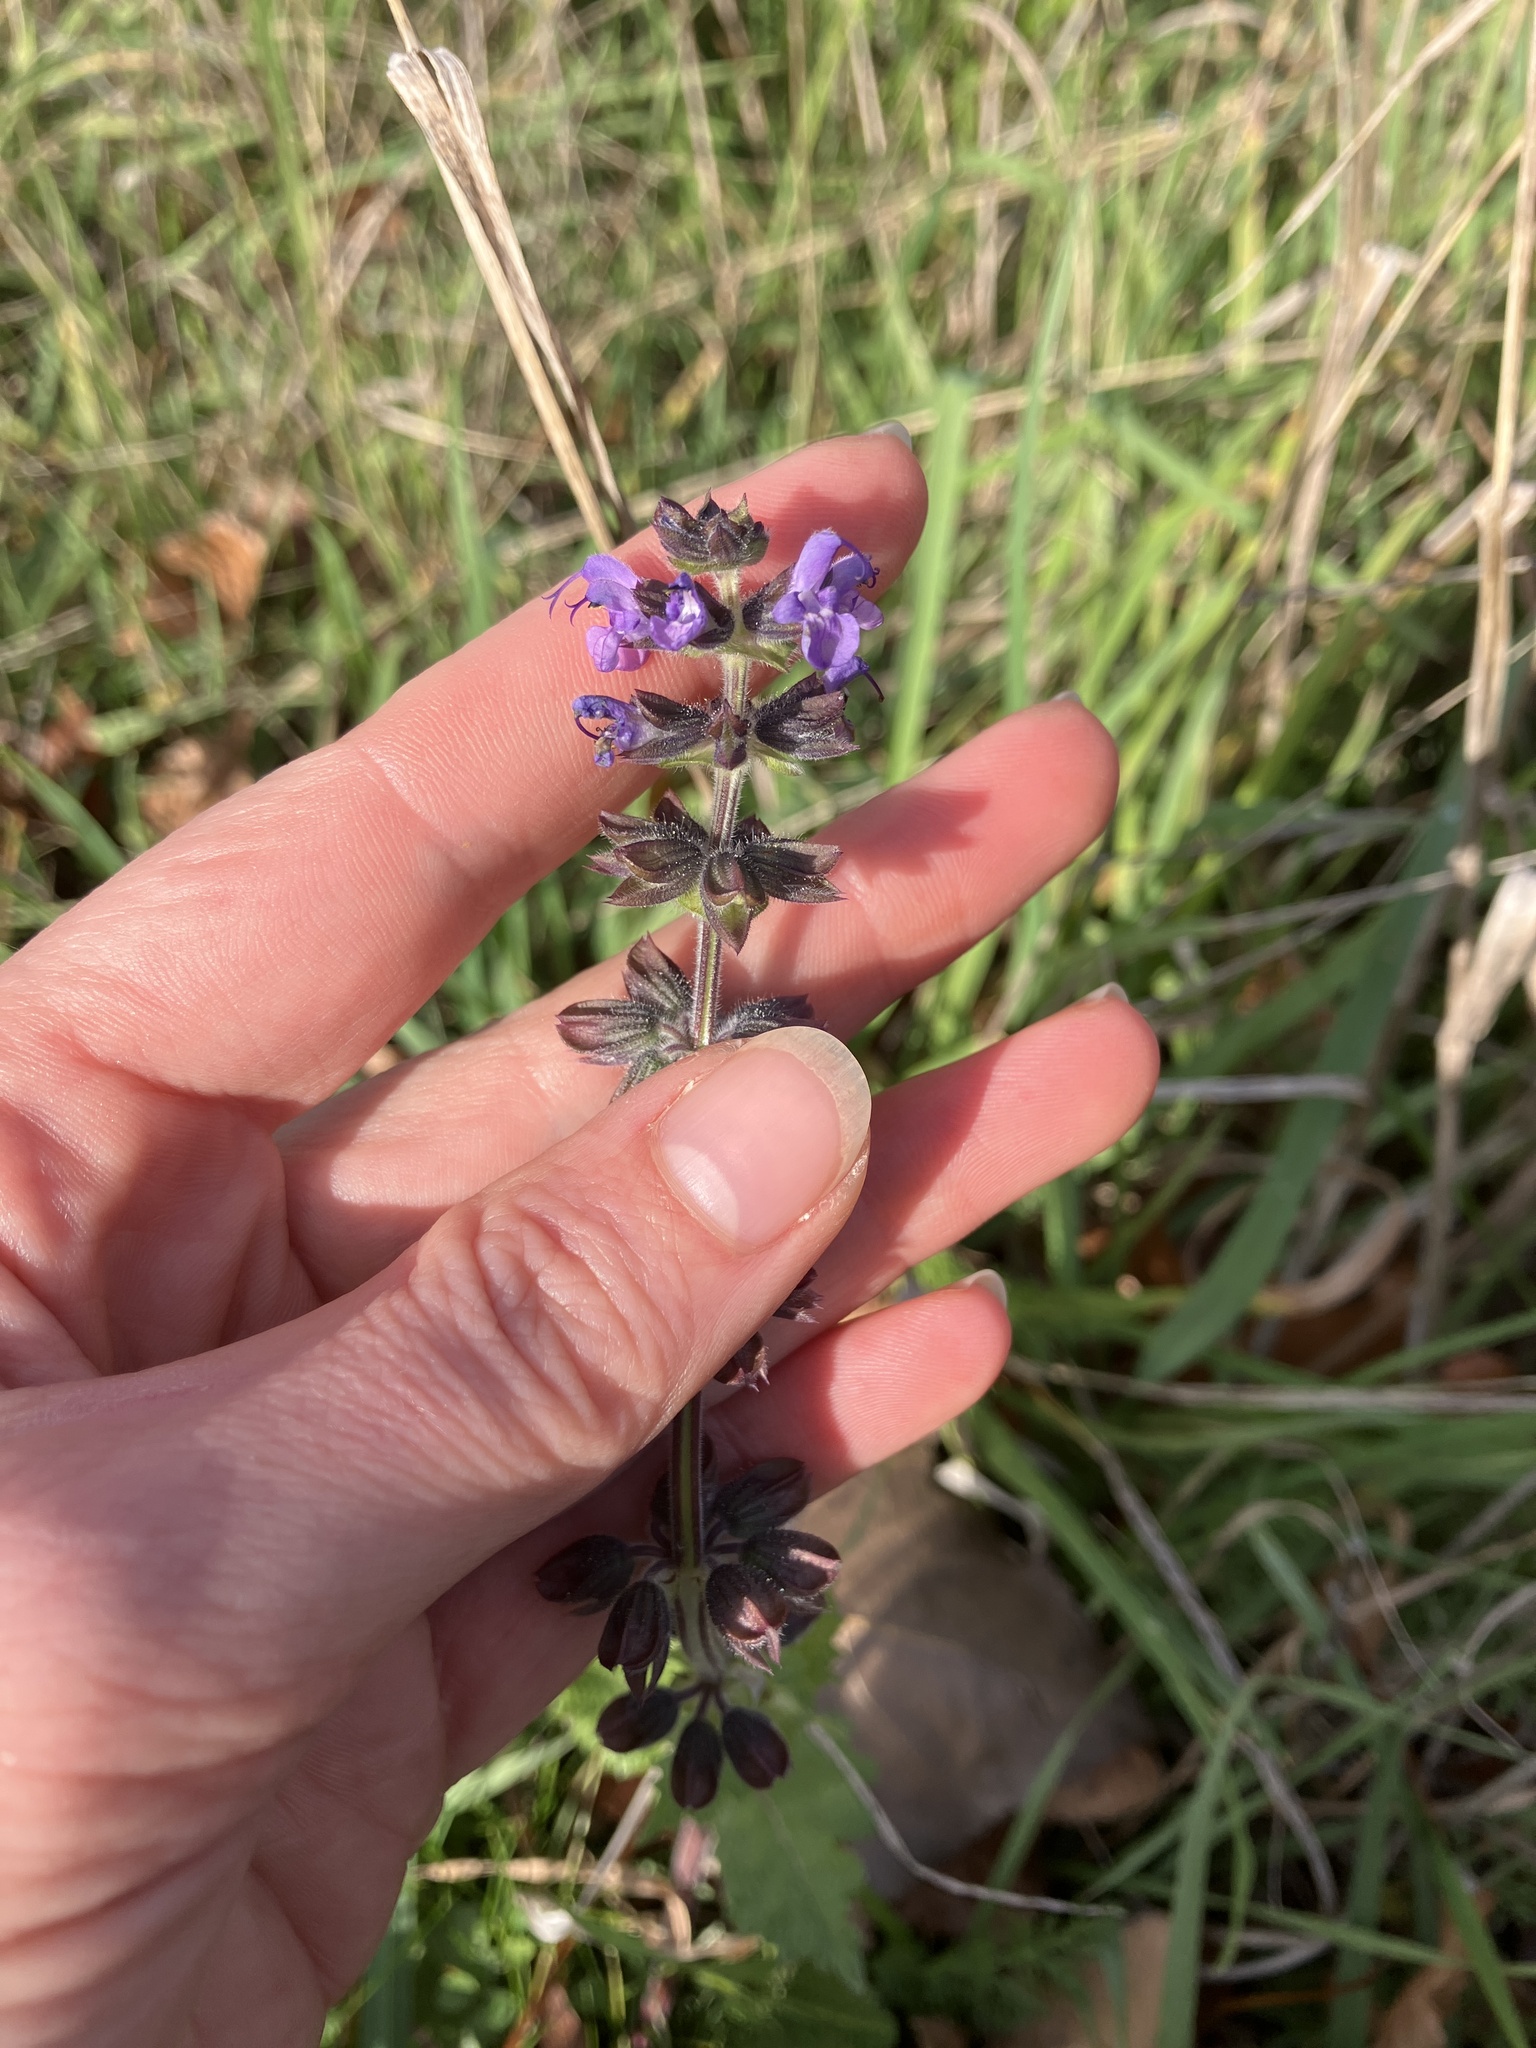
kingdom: Plantae
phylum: Tracheophyta
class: Magnoliopsida
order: Lamiales
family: Lamiaceae
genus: Salvia
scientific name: Salvia verbenaca
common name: Wild clary
